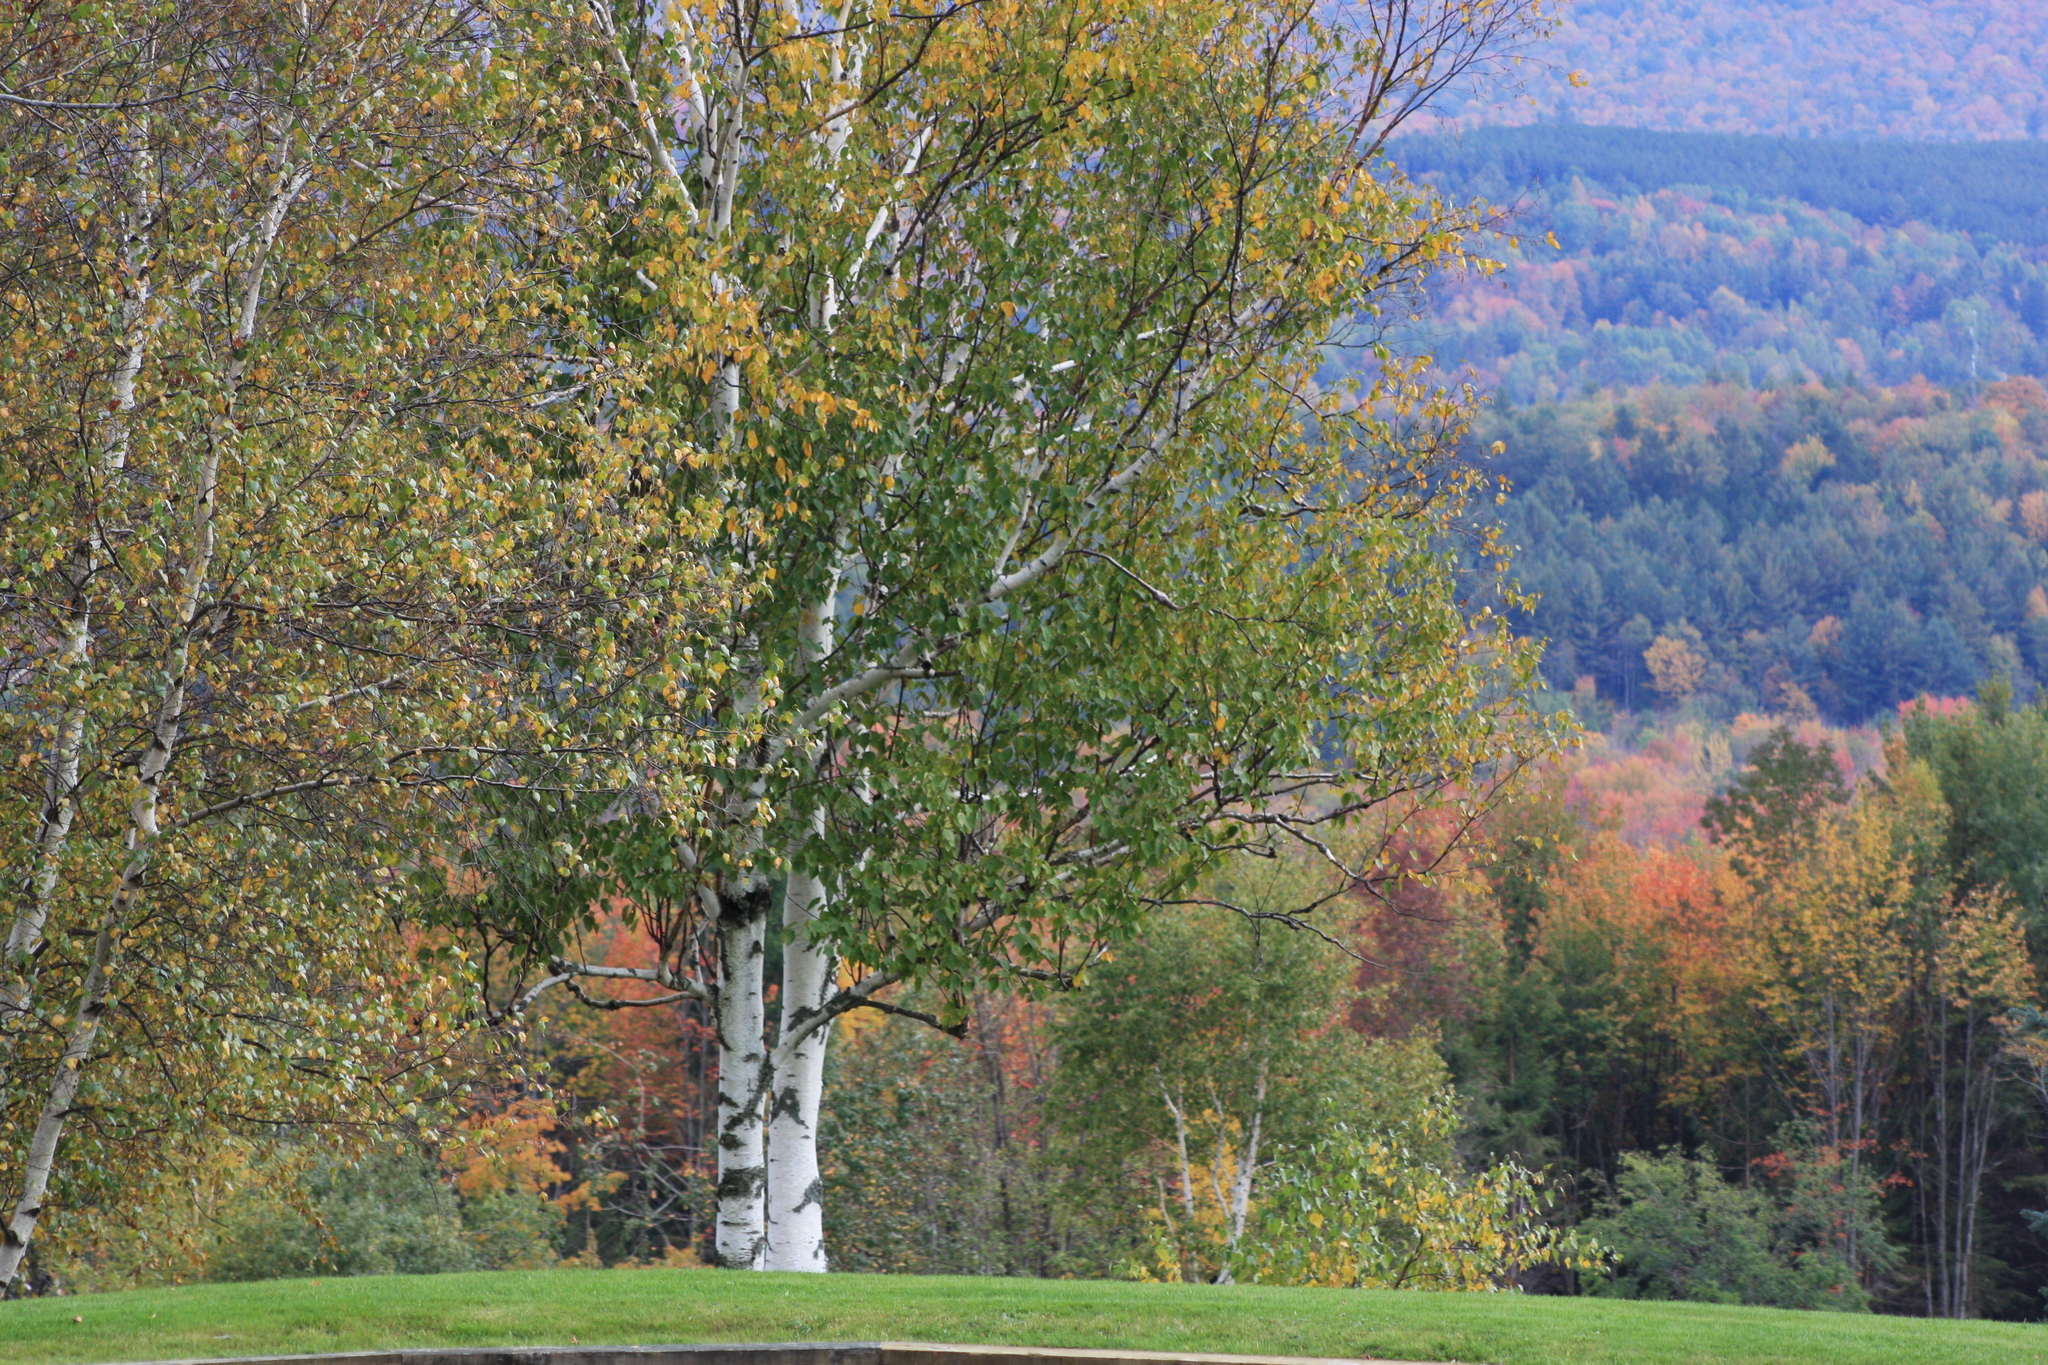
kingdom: Plantae
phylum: Tracheophyta
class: Magnoliopsida
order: Fagales
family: Betulaceae
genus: Betula
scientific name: Betula papyrifera
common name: Paper birch
